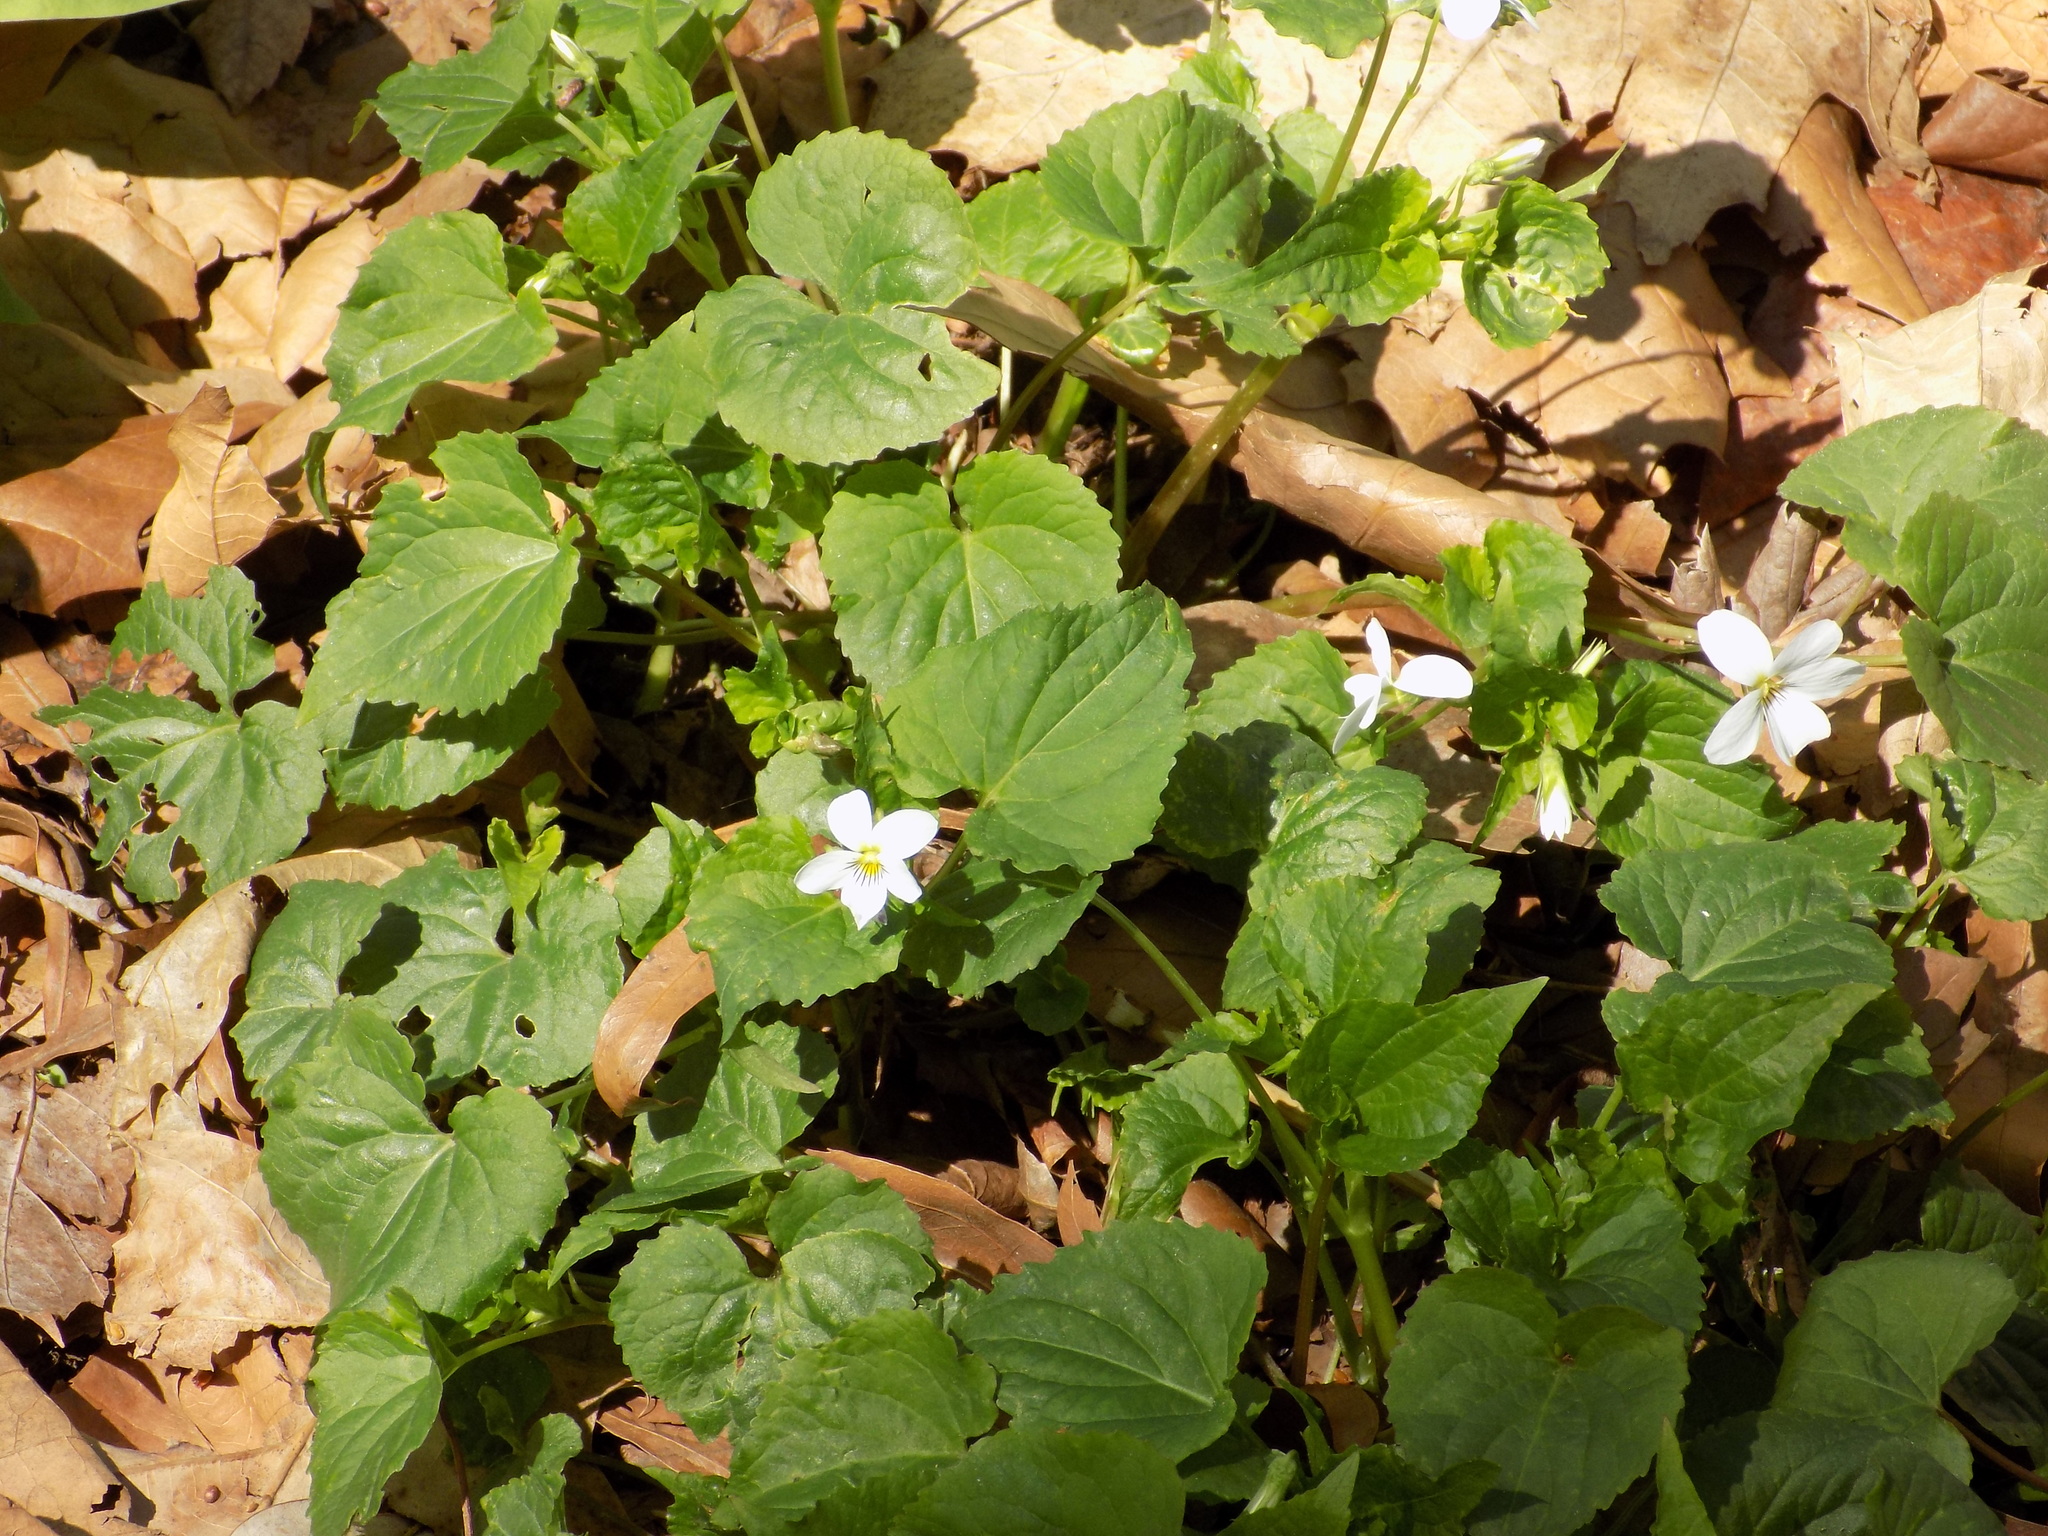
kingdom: Plantae
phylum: Tracheophyta
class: Magnoliopsida
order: Malpighiales
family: Violaceae
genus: Viola
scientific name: Viola canadensis
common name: Canada violet
